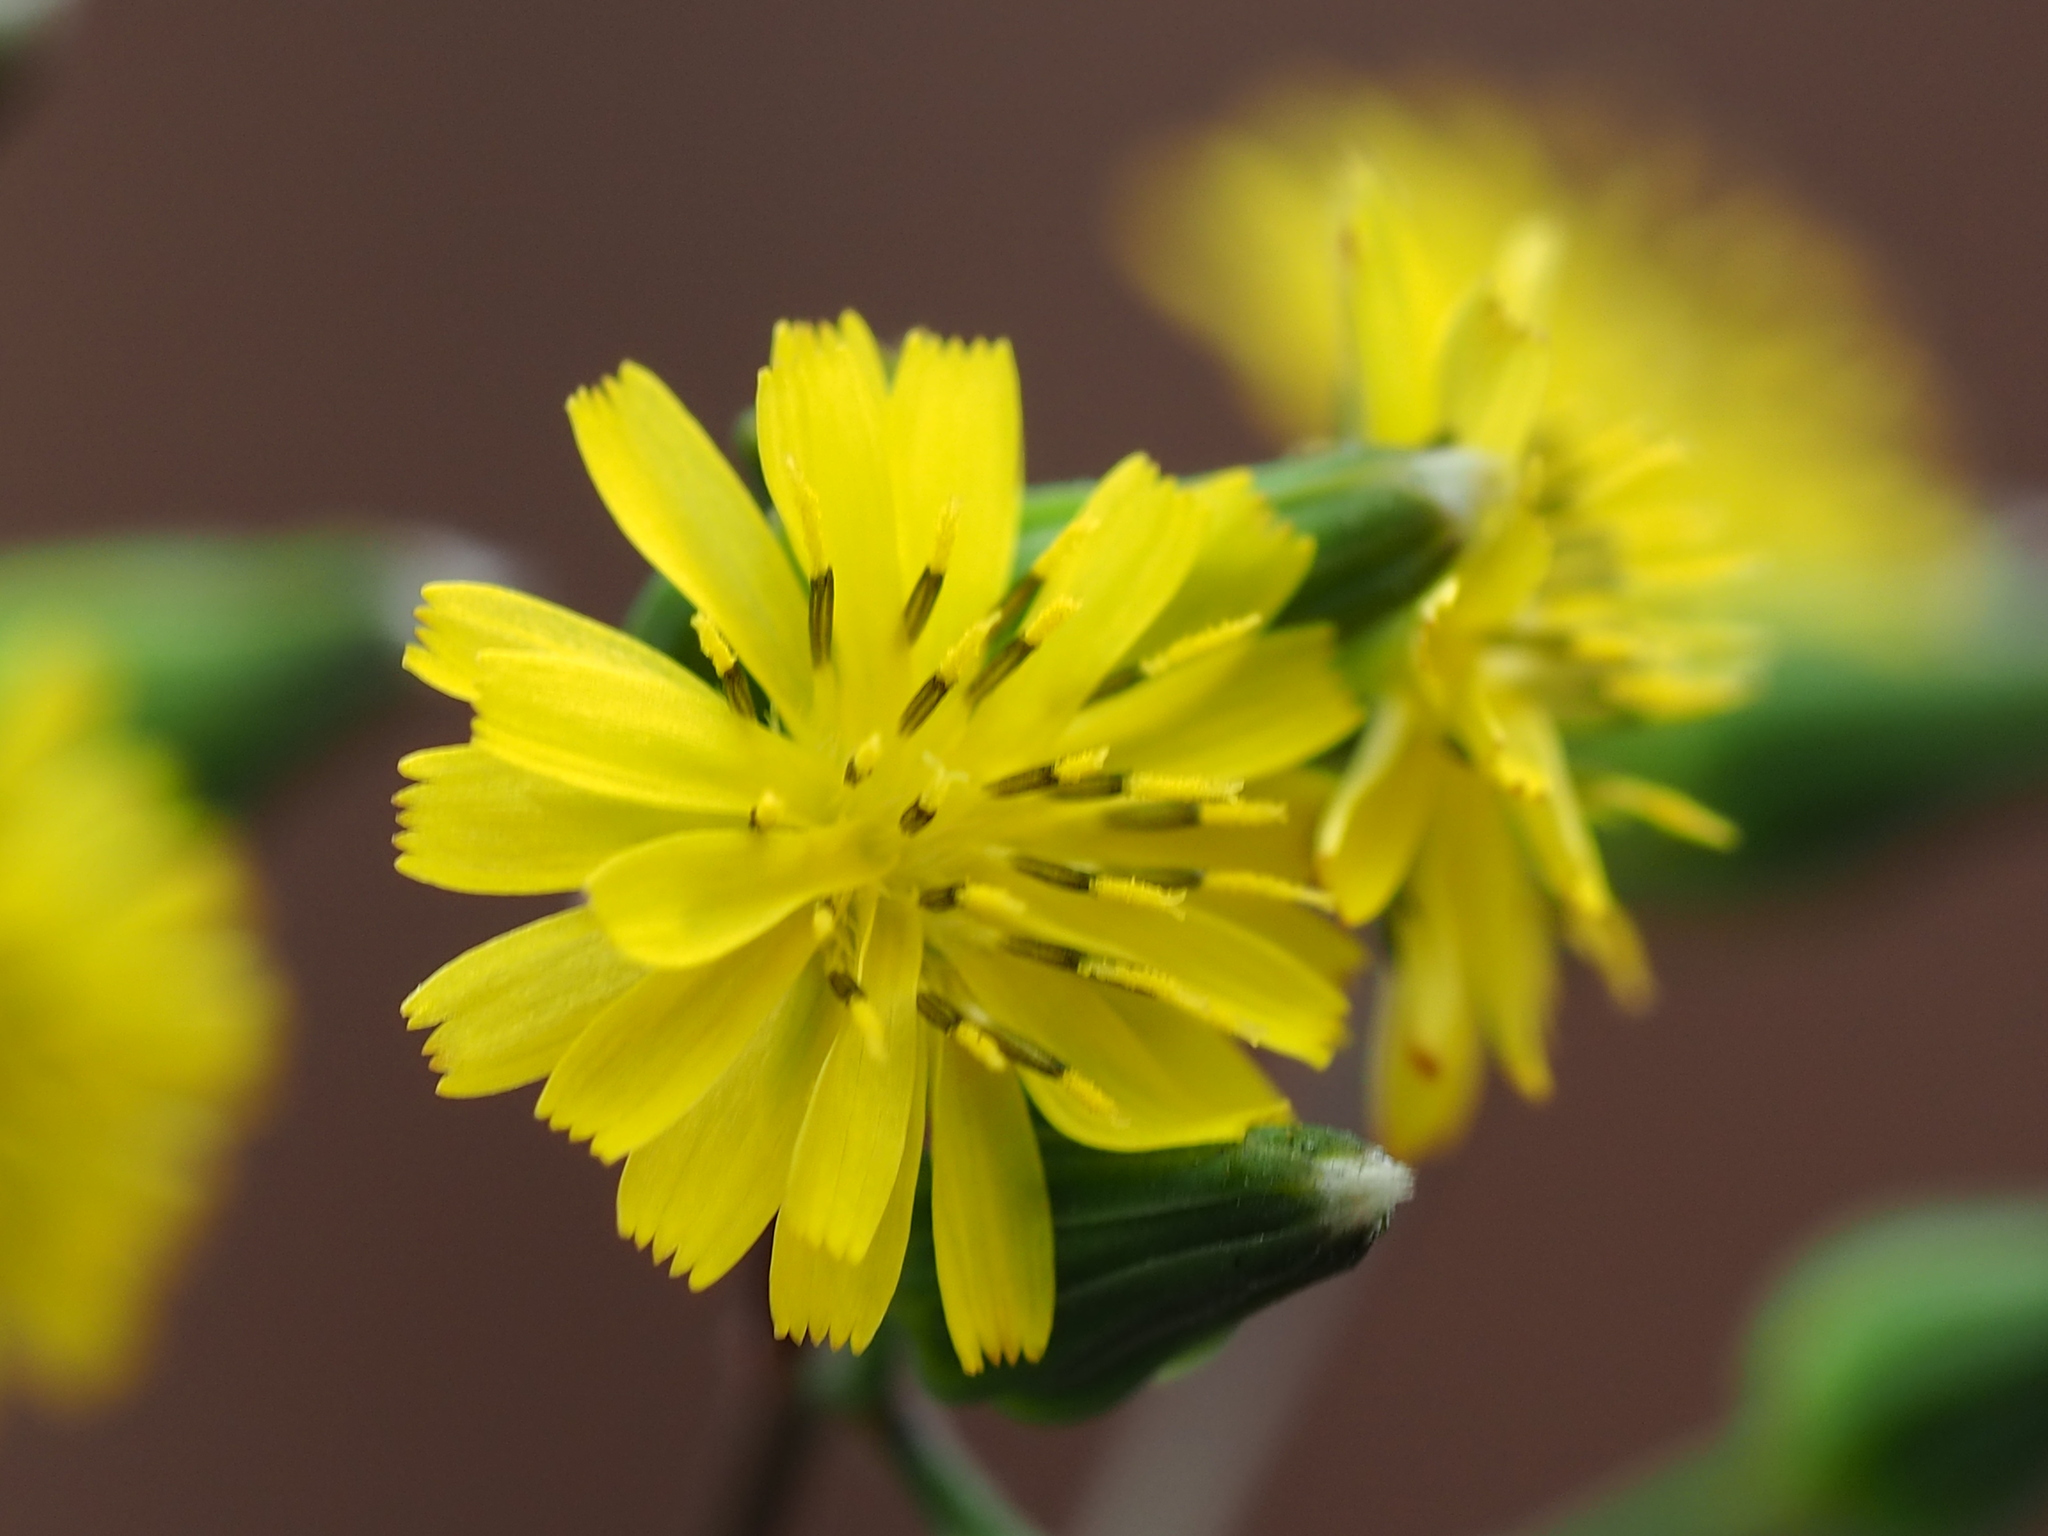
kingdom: Plantae
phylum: Tracheophyta
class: Magnoliopsida
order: Asterales
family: Asteraceae
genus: Youngia
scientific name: Youngia japonica
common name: Oriental false hawksbeard
